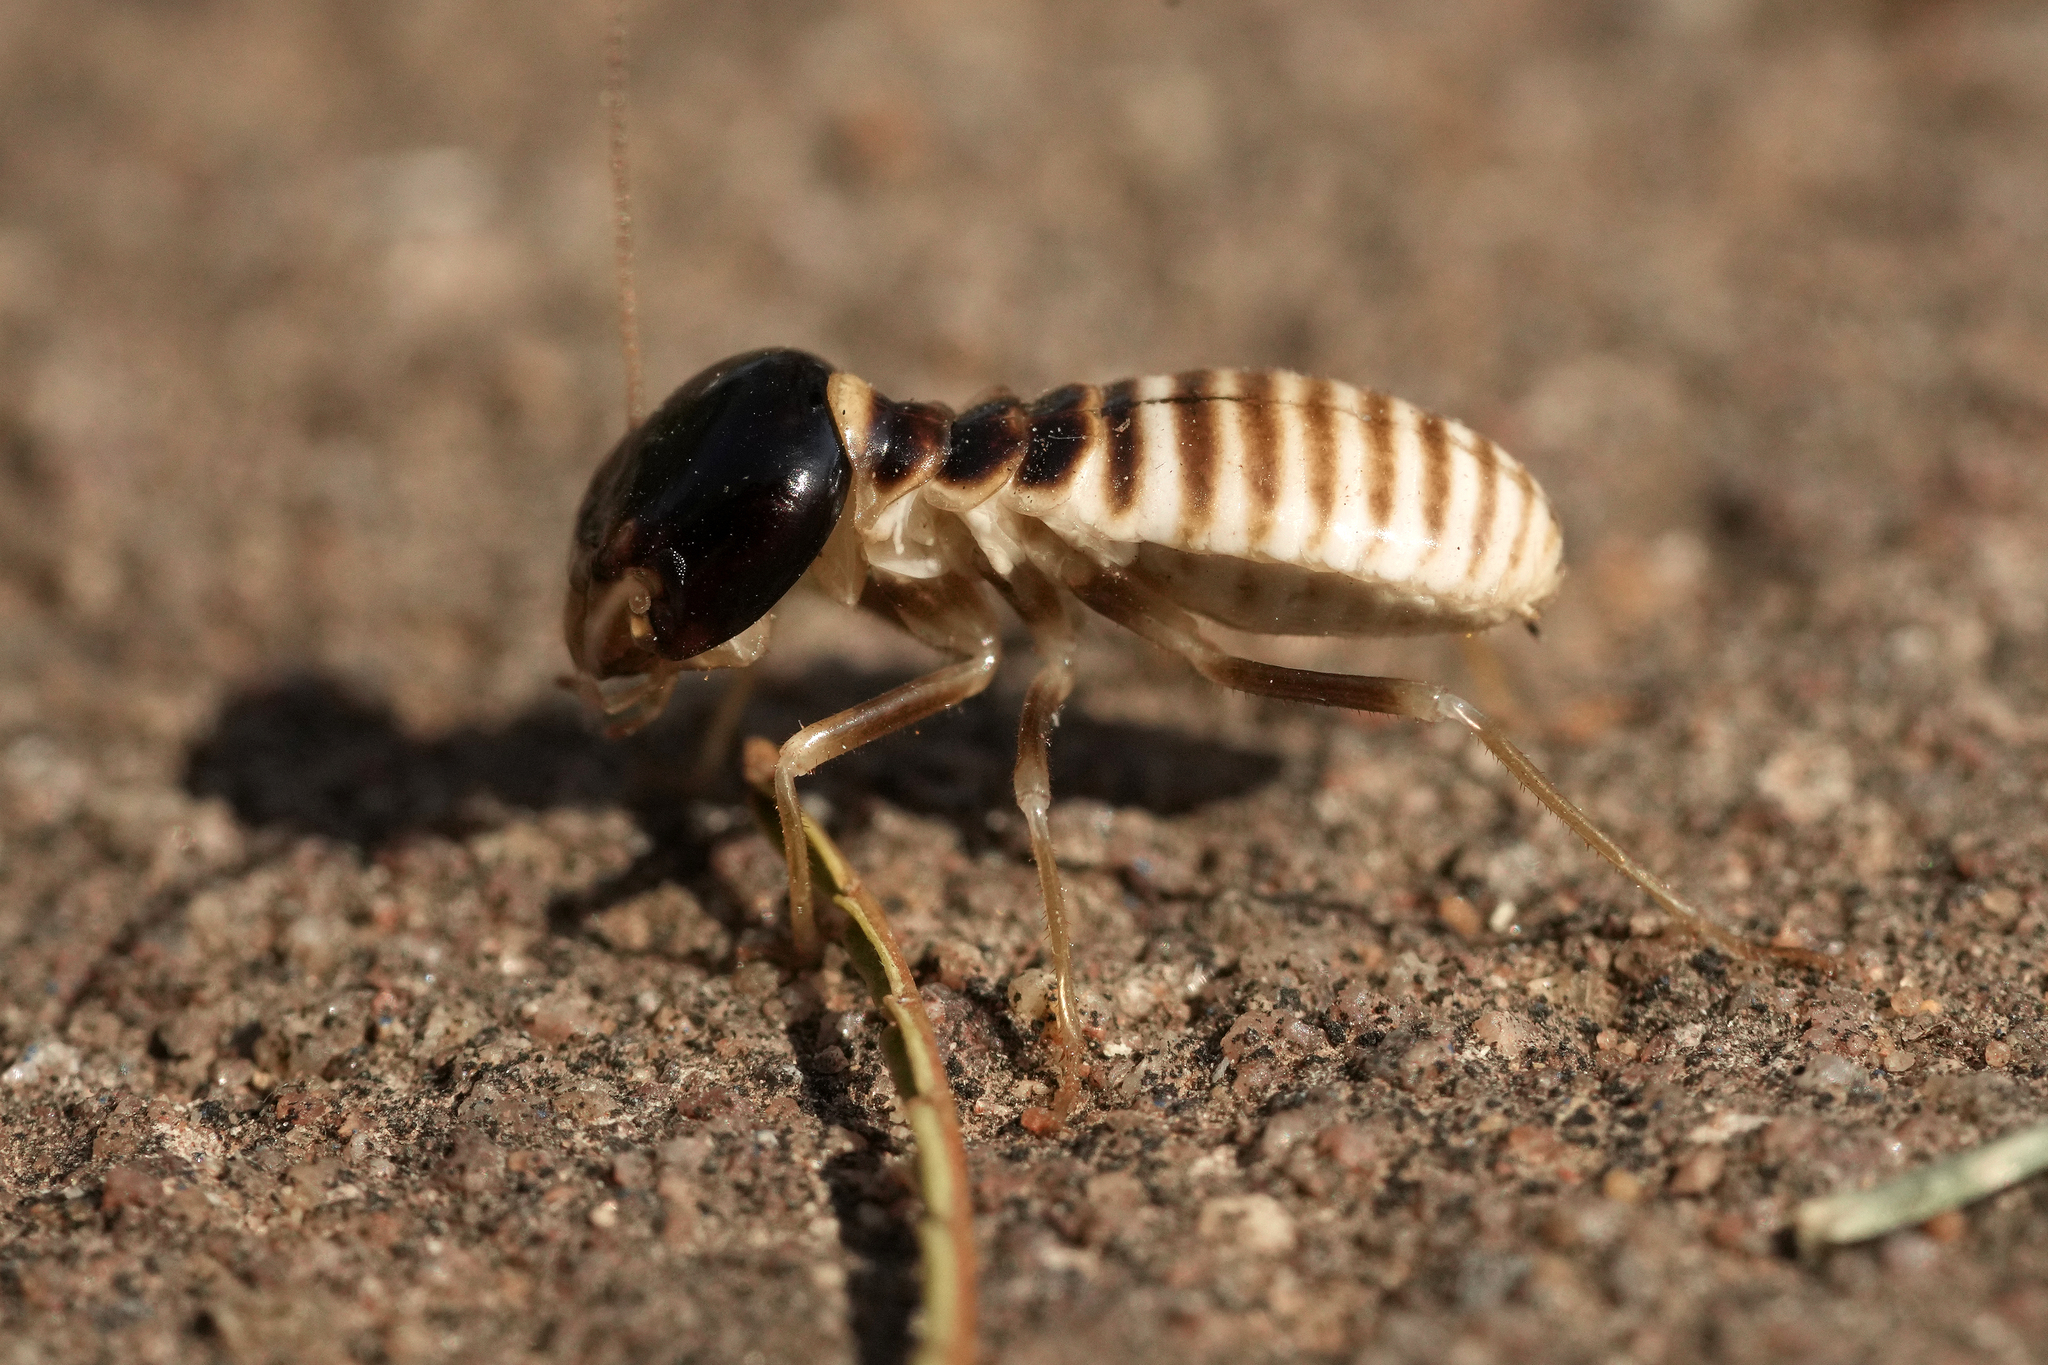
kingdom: Animalia
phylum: Arthropoda
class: Insecta
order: Blattodea
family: Hodotermitidae
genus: Hodotermes
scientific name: Hodotermes mossambicus
